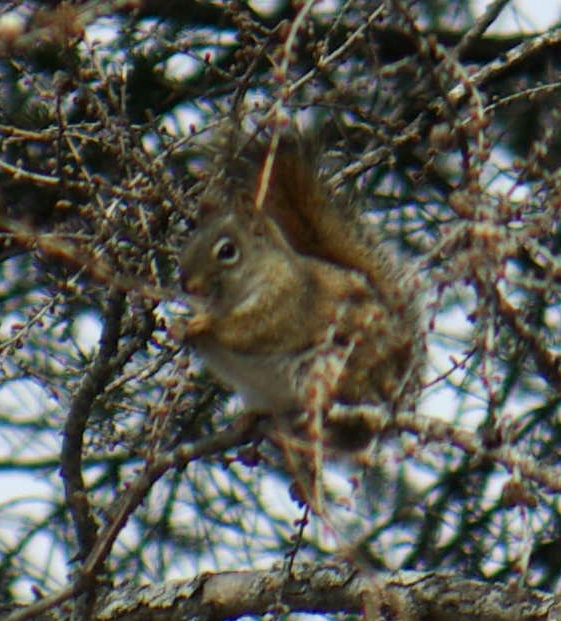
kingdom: Animalia
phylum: Chordata
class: Mammalia
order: Rodentia
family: Sciuridae
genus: Tamiasciurus
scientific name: Tamiasciurus hudsonicus
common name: Red squirrel
